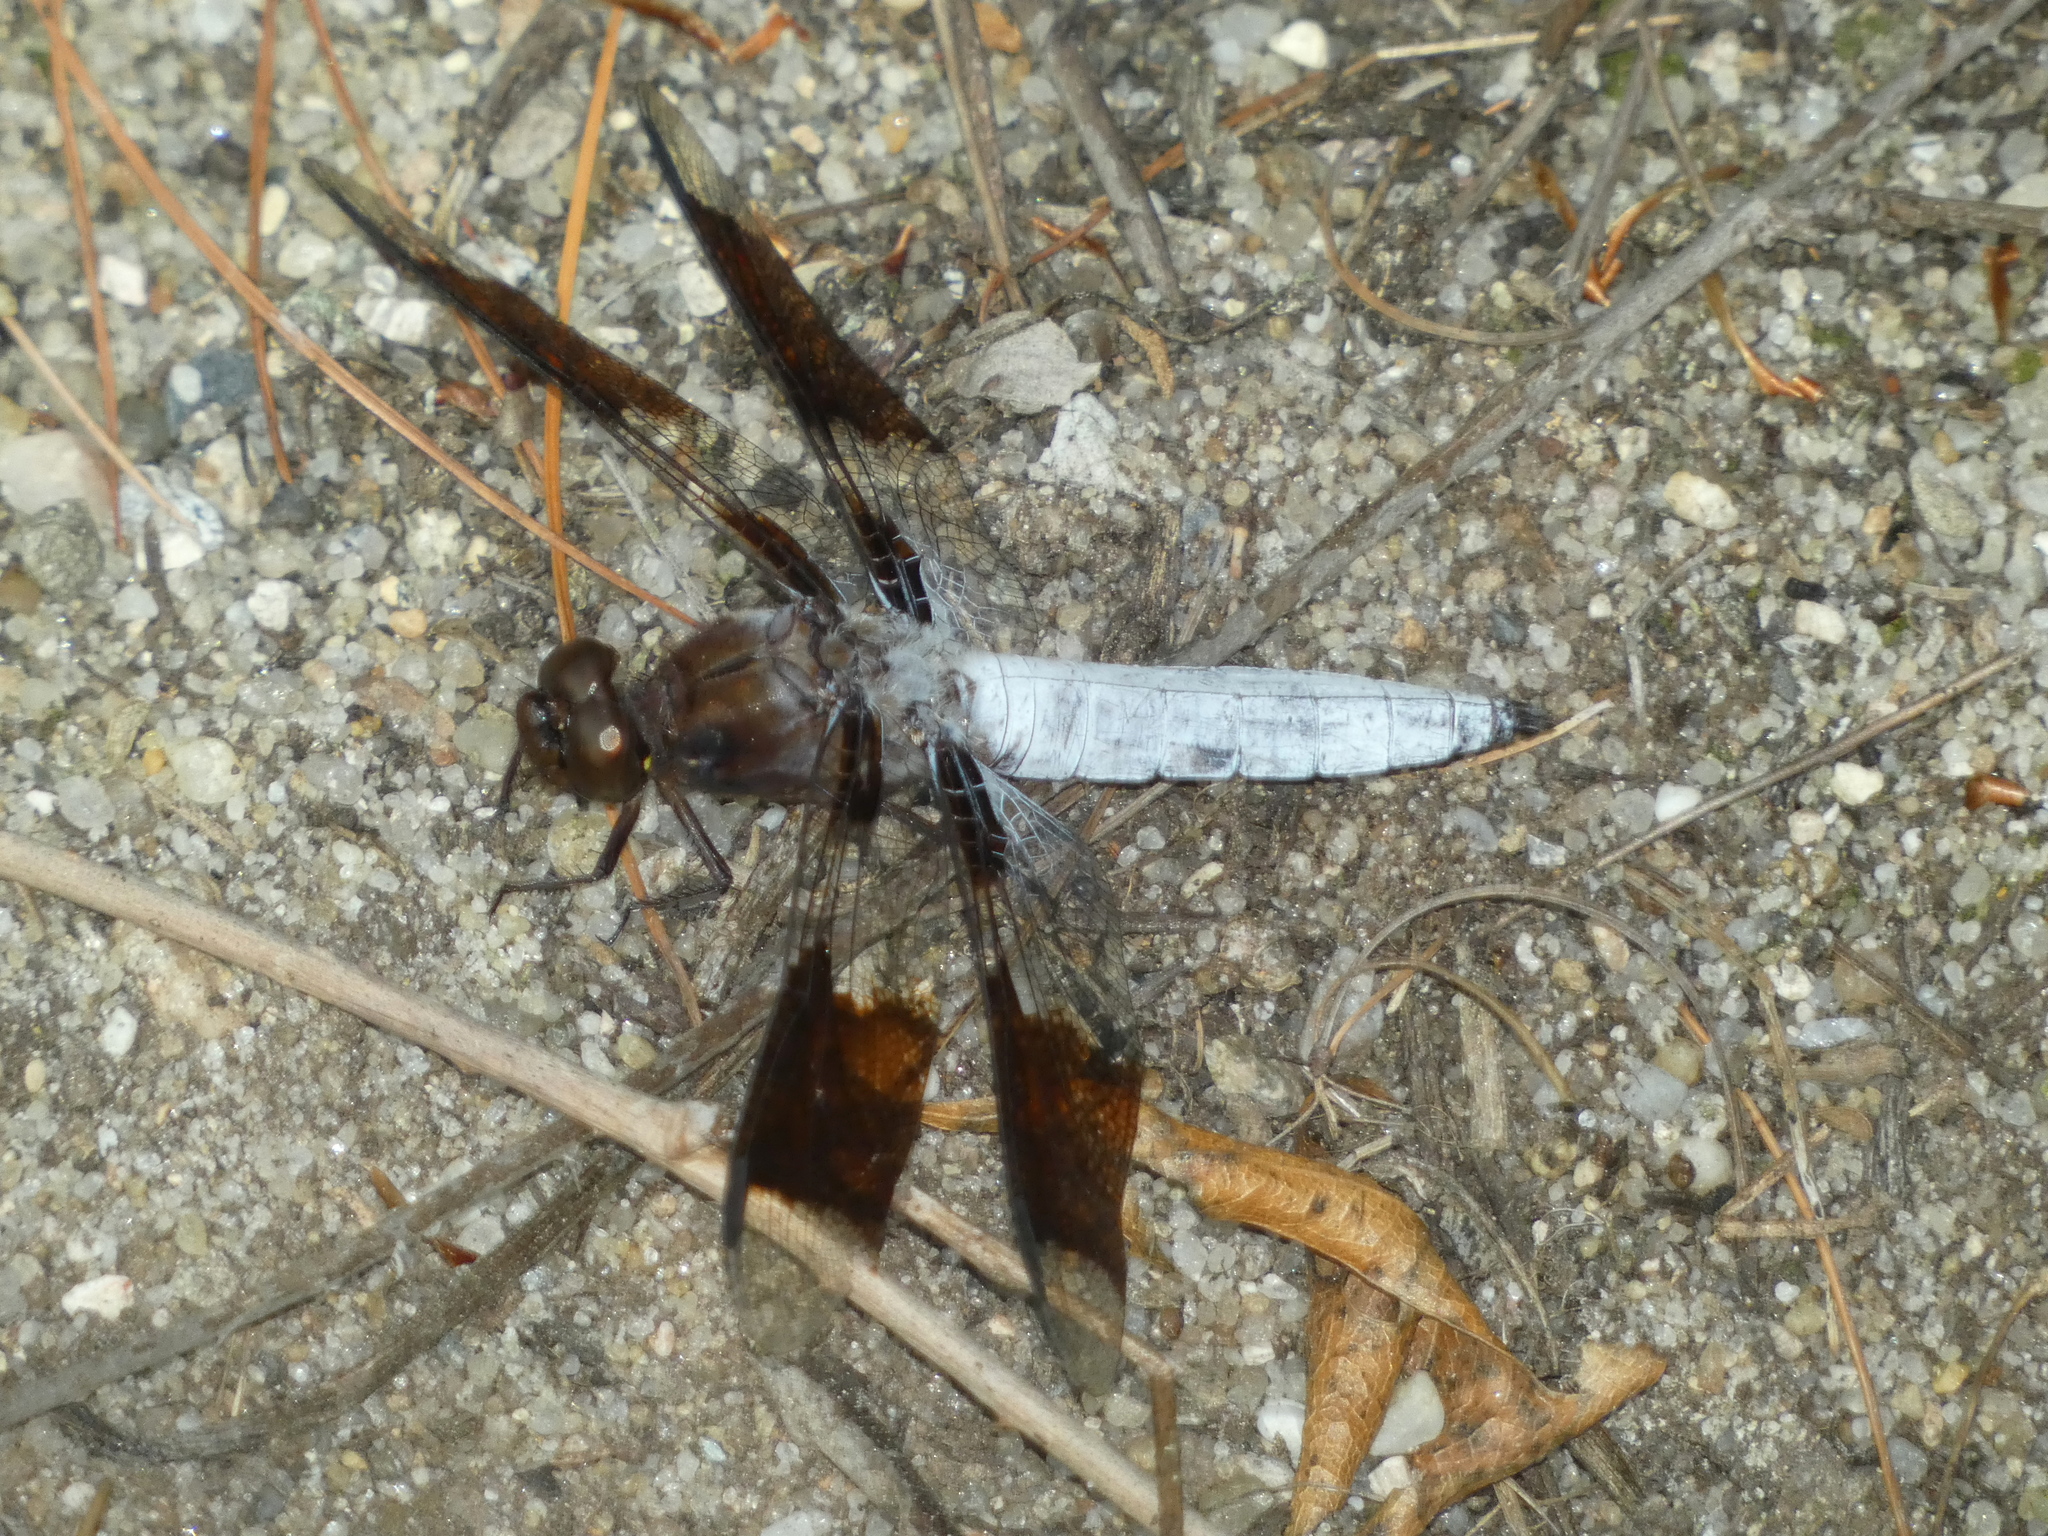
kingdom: Animalia
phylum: Arthropoda
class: Insecta
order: Odonata
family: Libellulidae
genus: Plathemis
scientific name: Plathemis lydia
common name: Common whitetail
